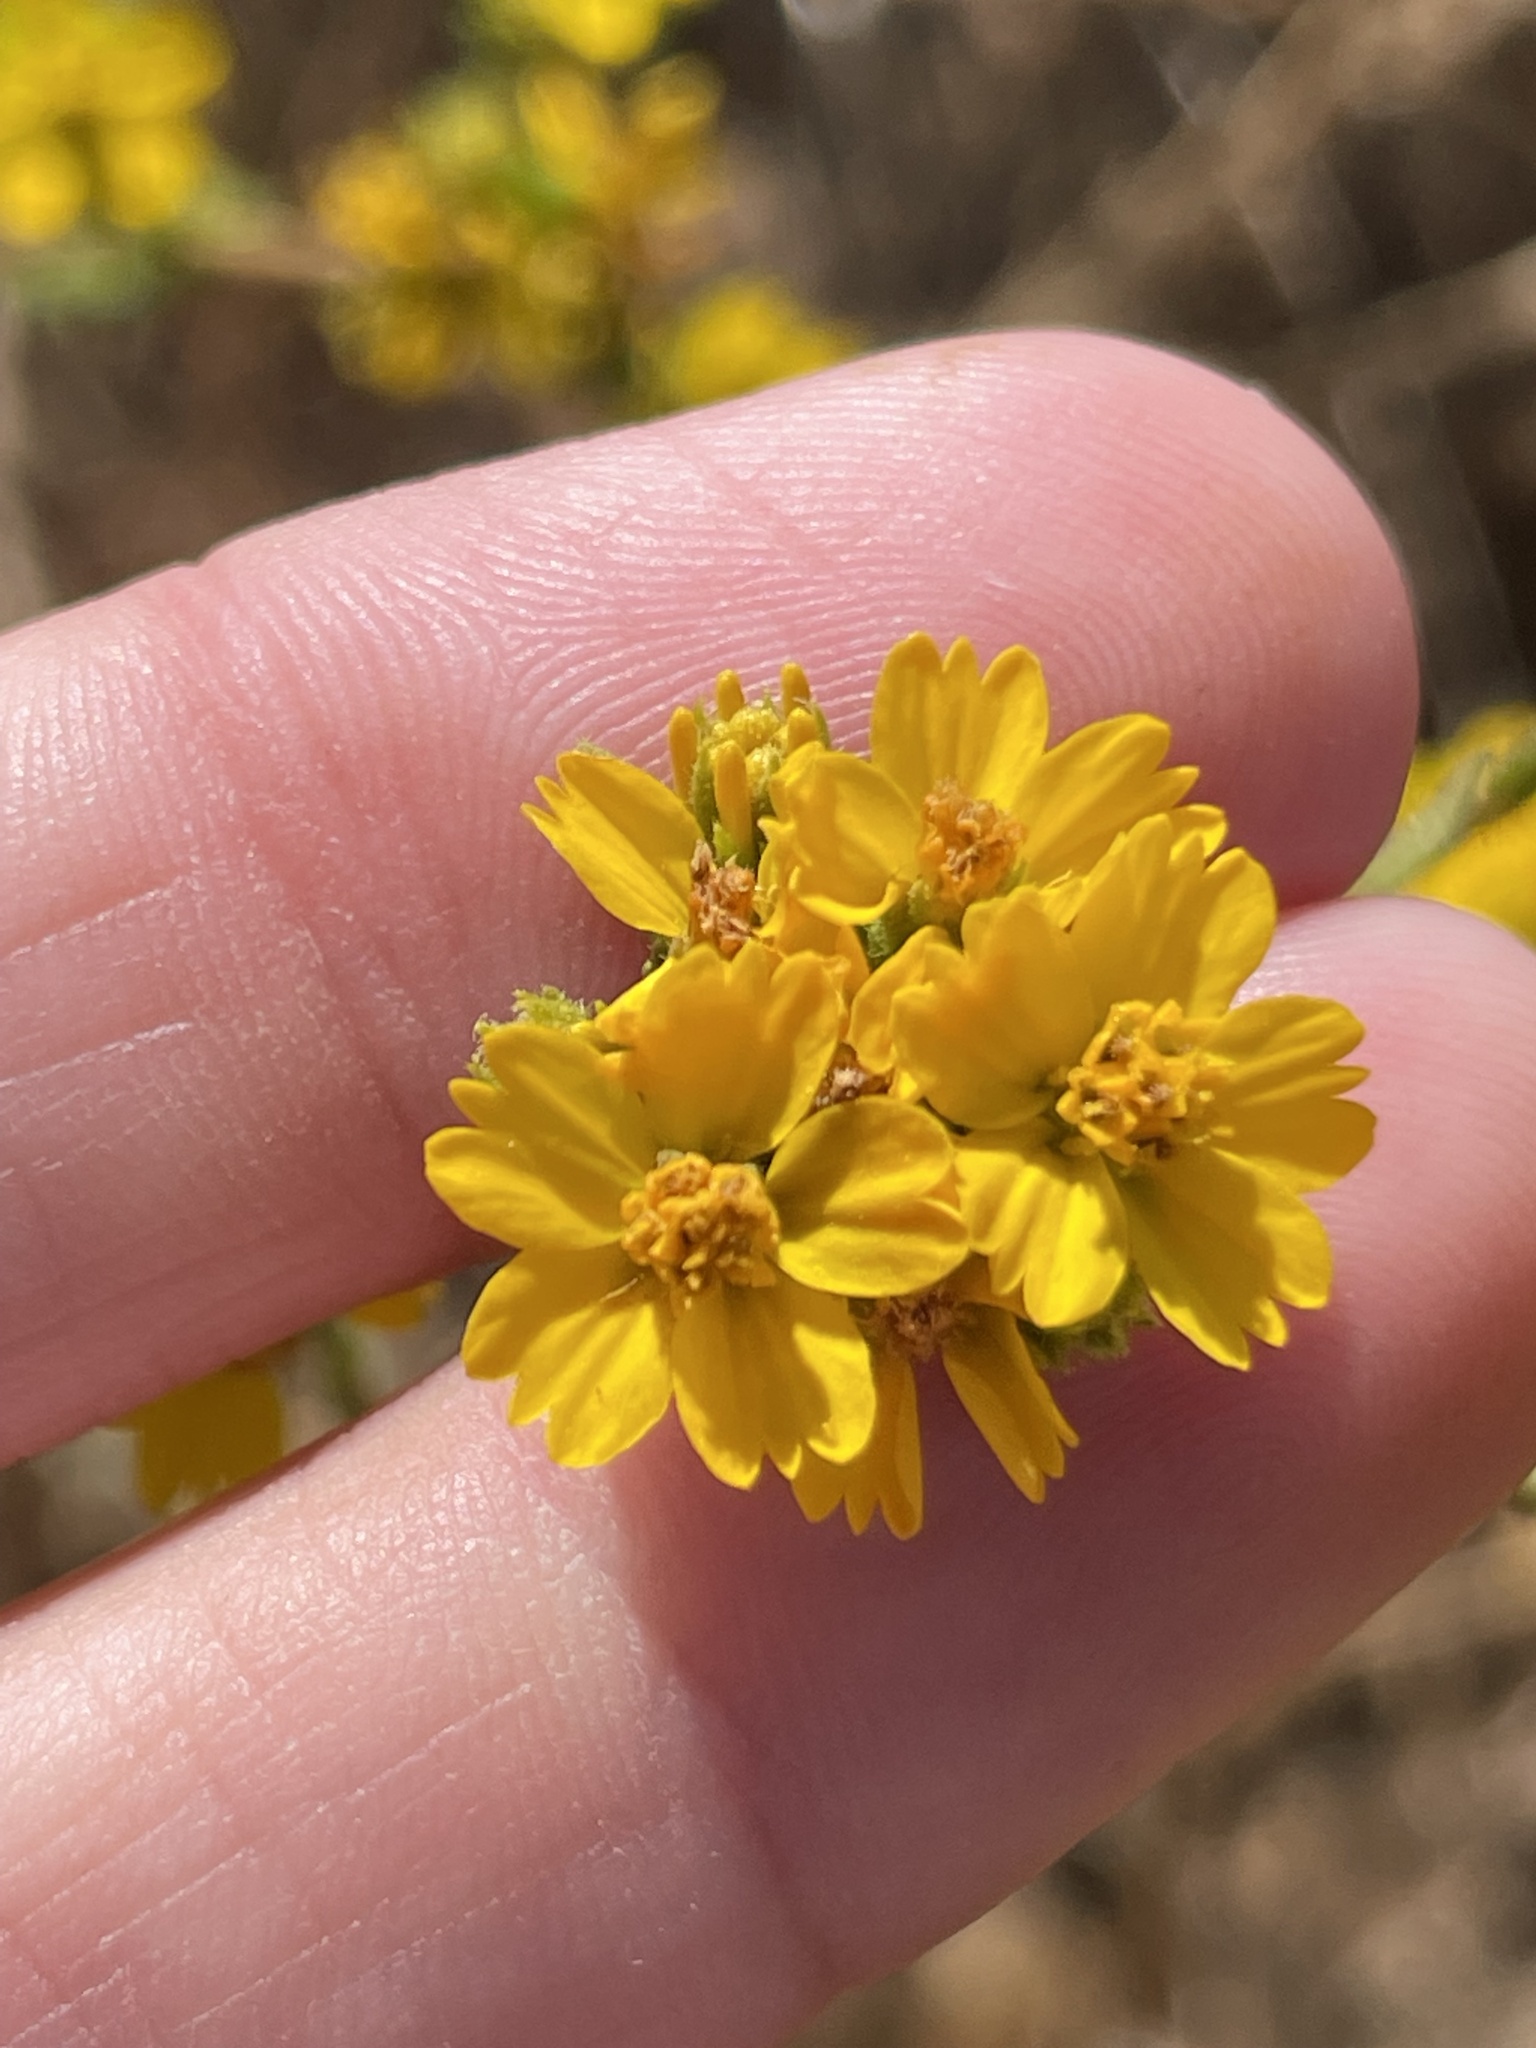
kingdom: Plantae
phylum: Tracheophyta
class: Magnoliopsida
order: Asterales
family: Asteraceae
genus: Deinandra
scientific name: Deinandra fasciculata
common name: Clustered tarweed
